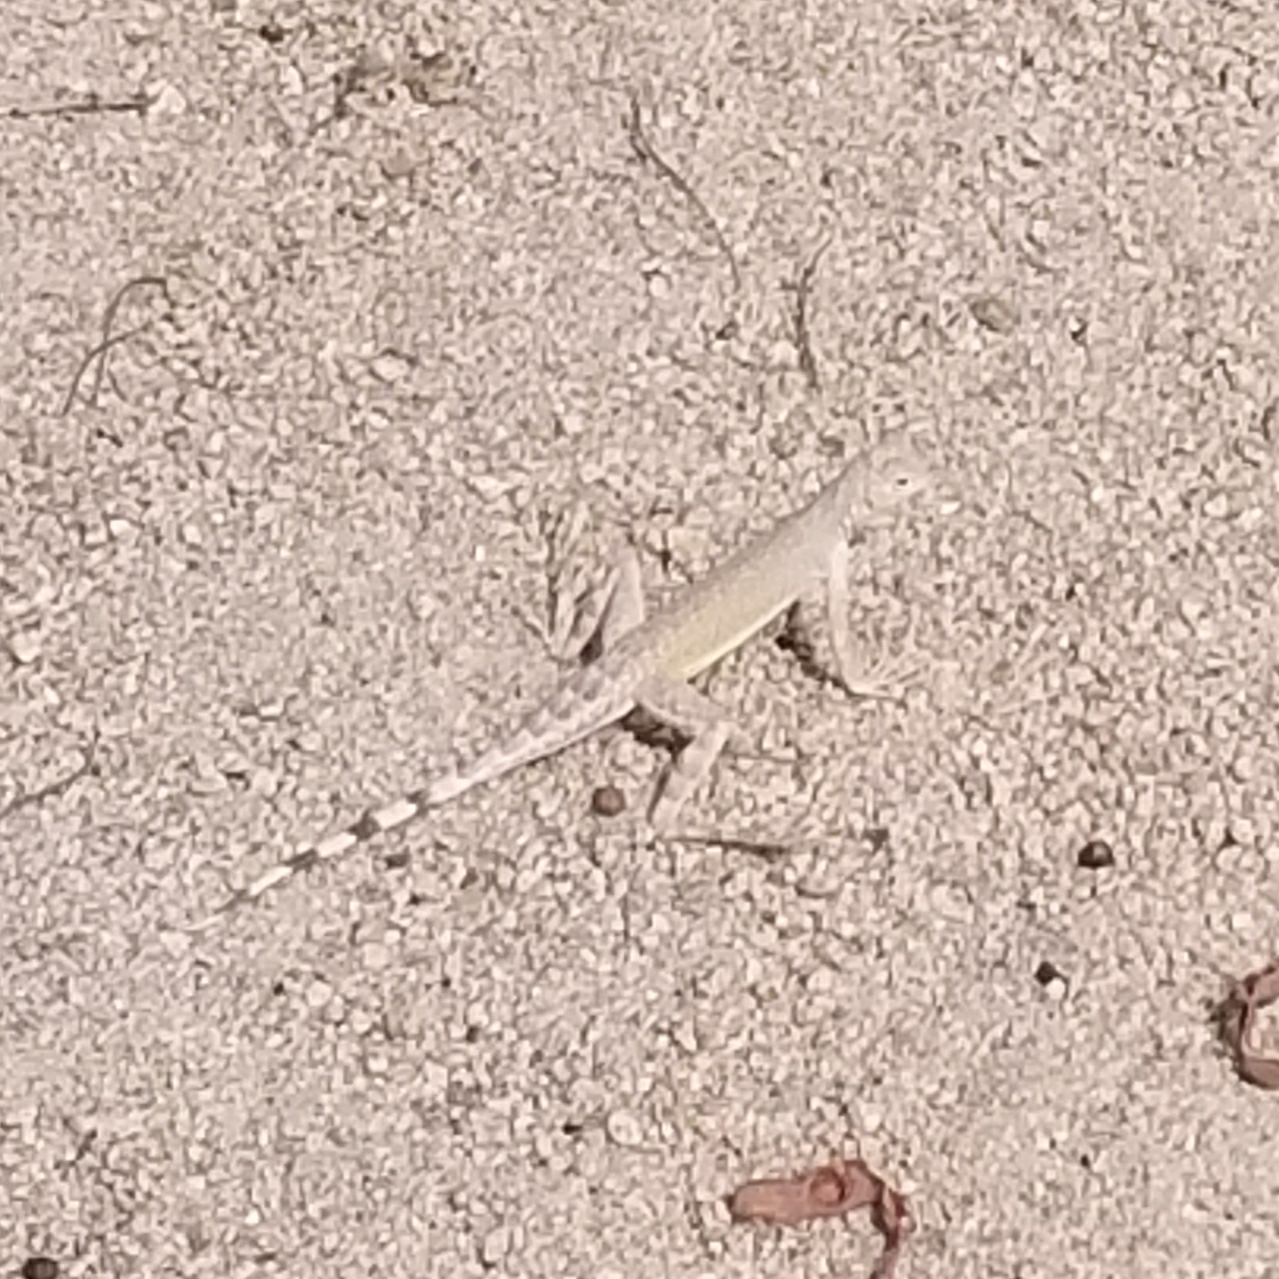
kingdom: Animalia
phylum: Chordata
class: Squamata
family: Phrynosomatidae
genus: Callisaurus
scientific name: Callisaurus draconoides
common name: Zebra-tailed lizard
